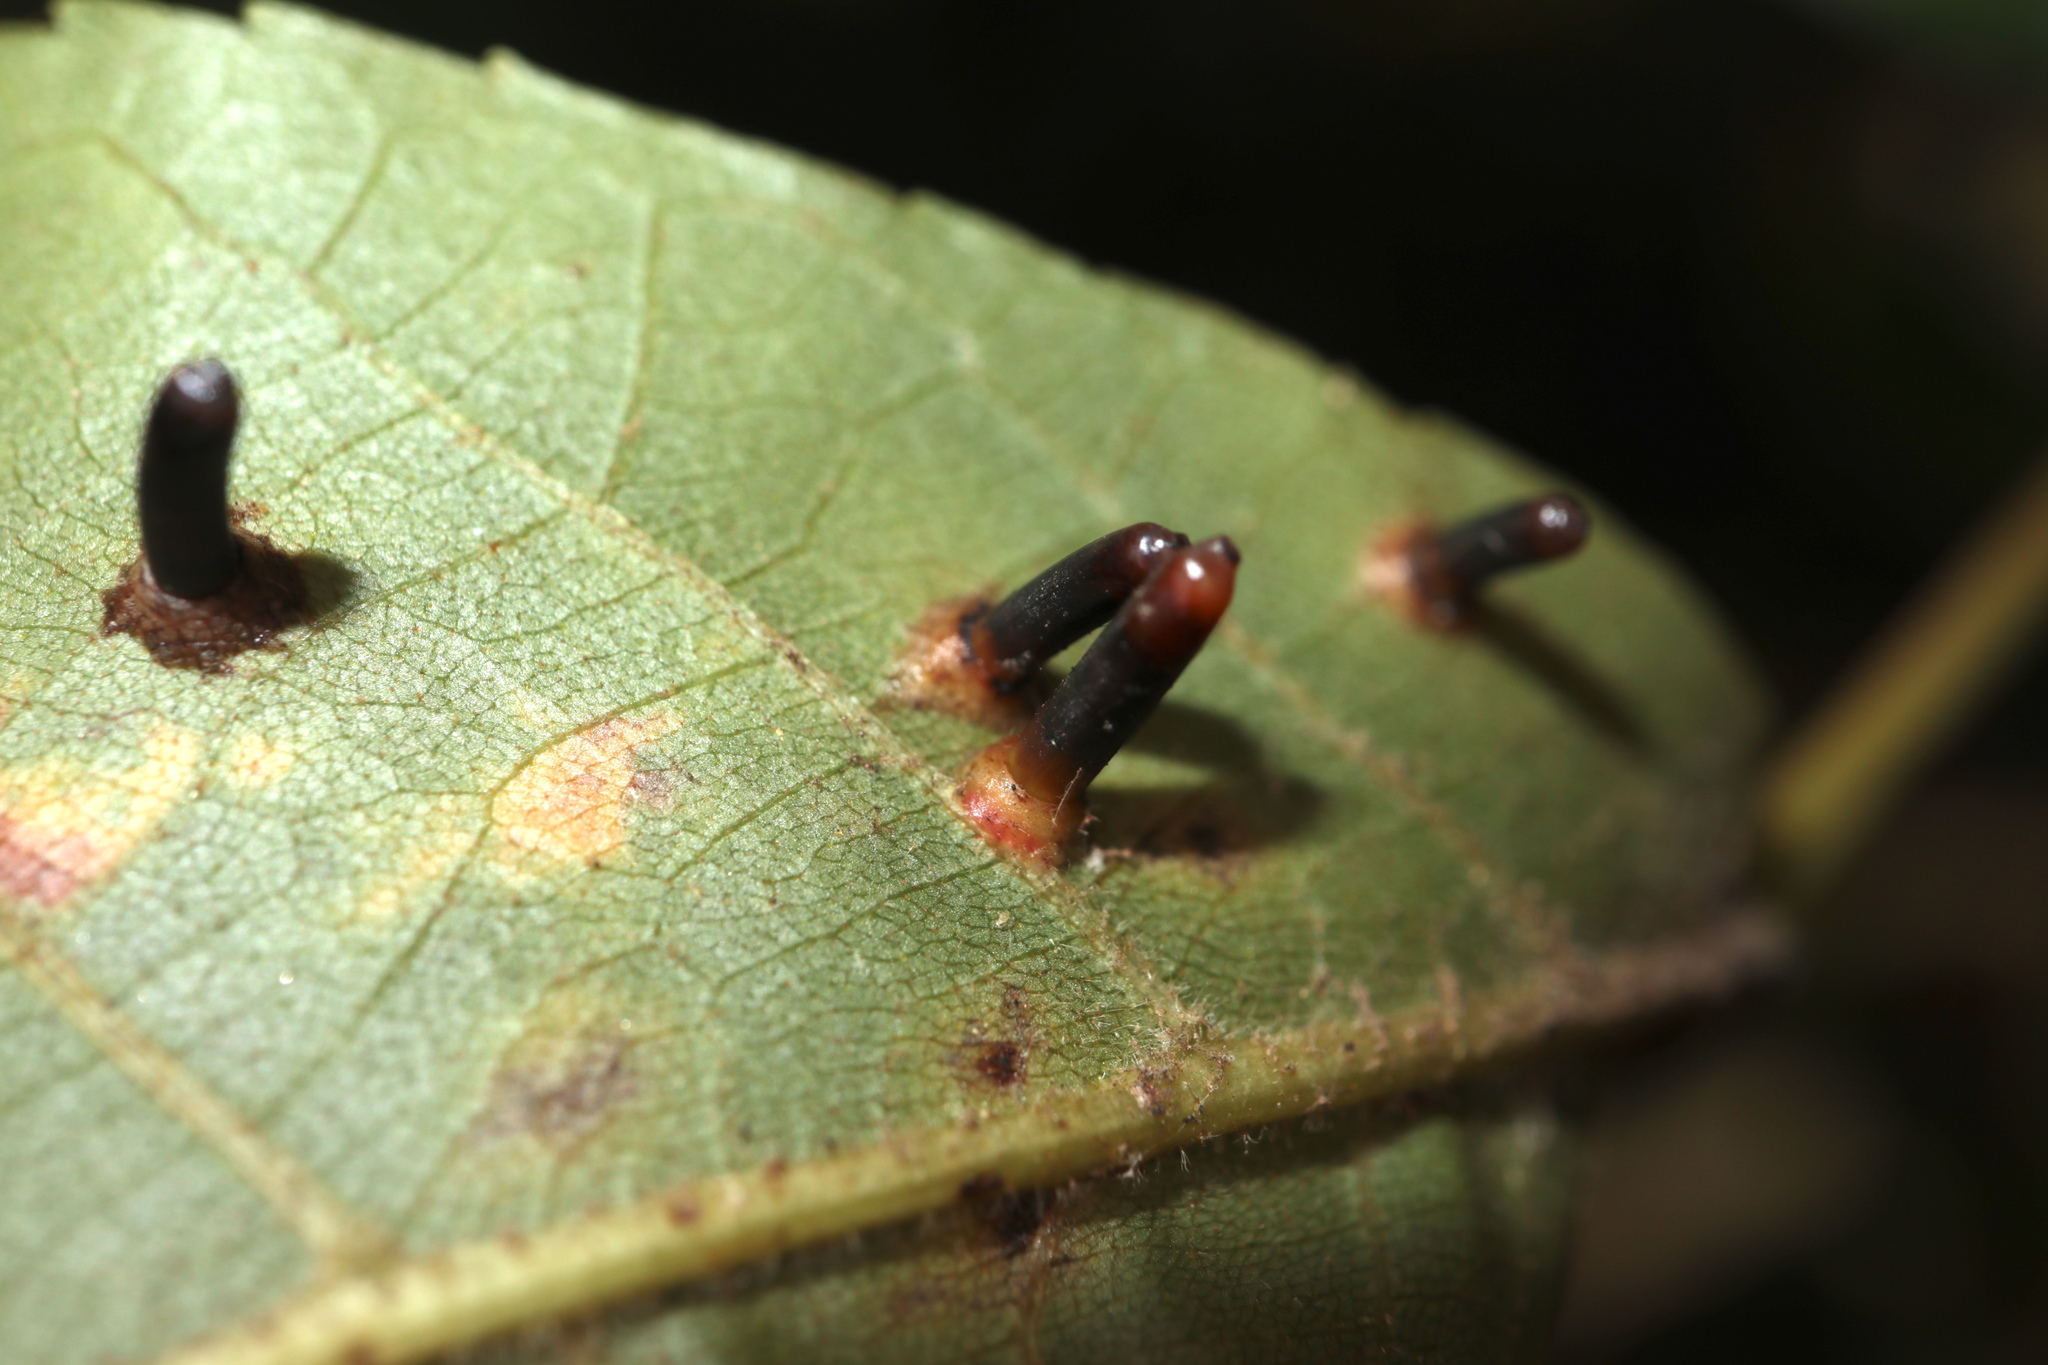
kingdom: Animalia
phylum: Arthropoda
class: Insecta
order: Diptera
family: Cecidomyiidae
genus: Caryomyia
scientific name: Caryomyia tubicola
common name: Hickory bullet gall midge
